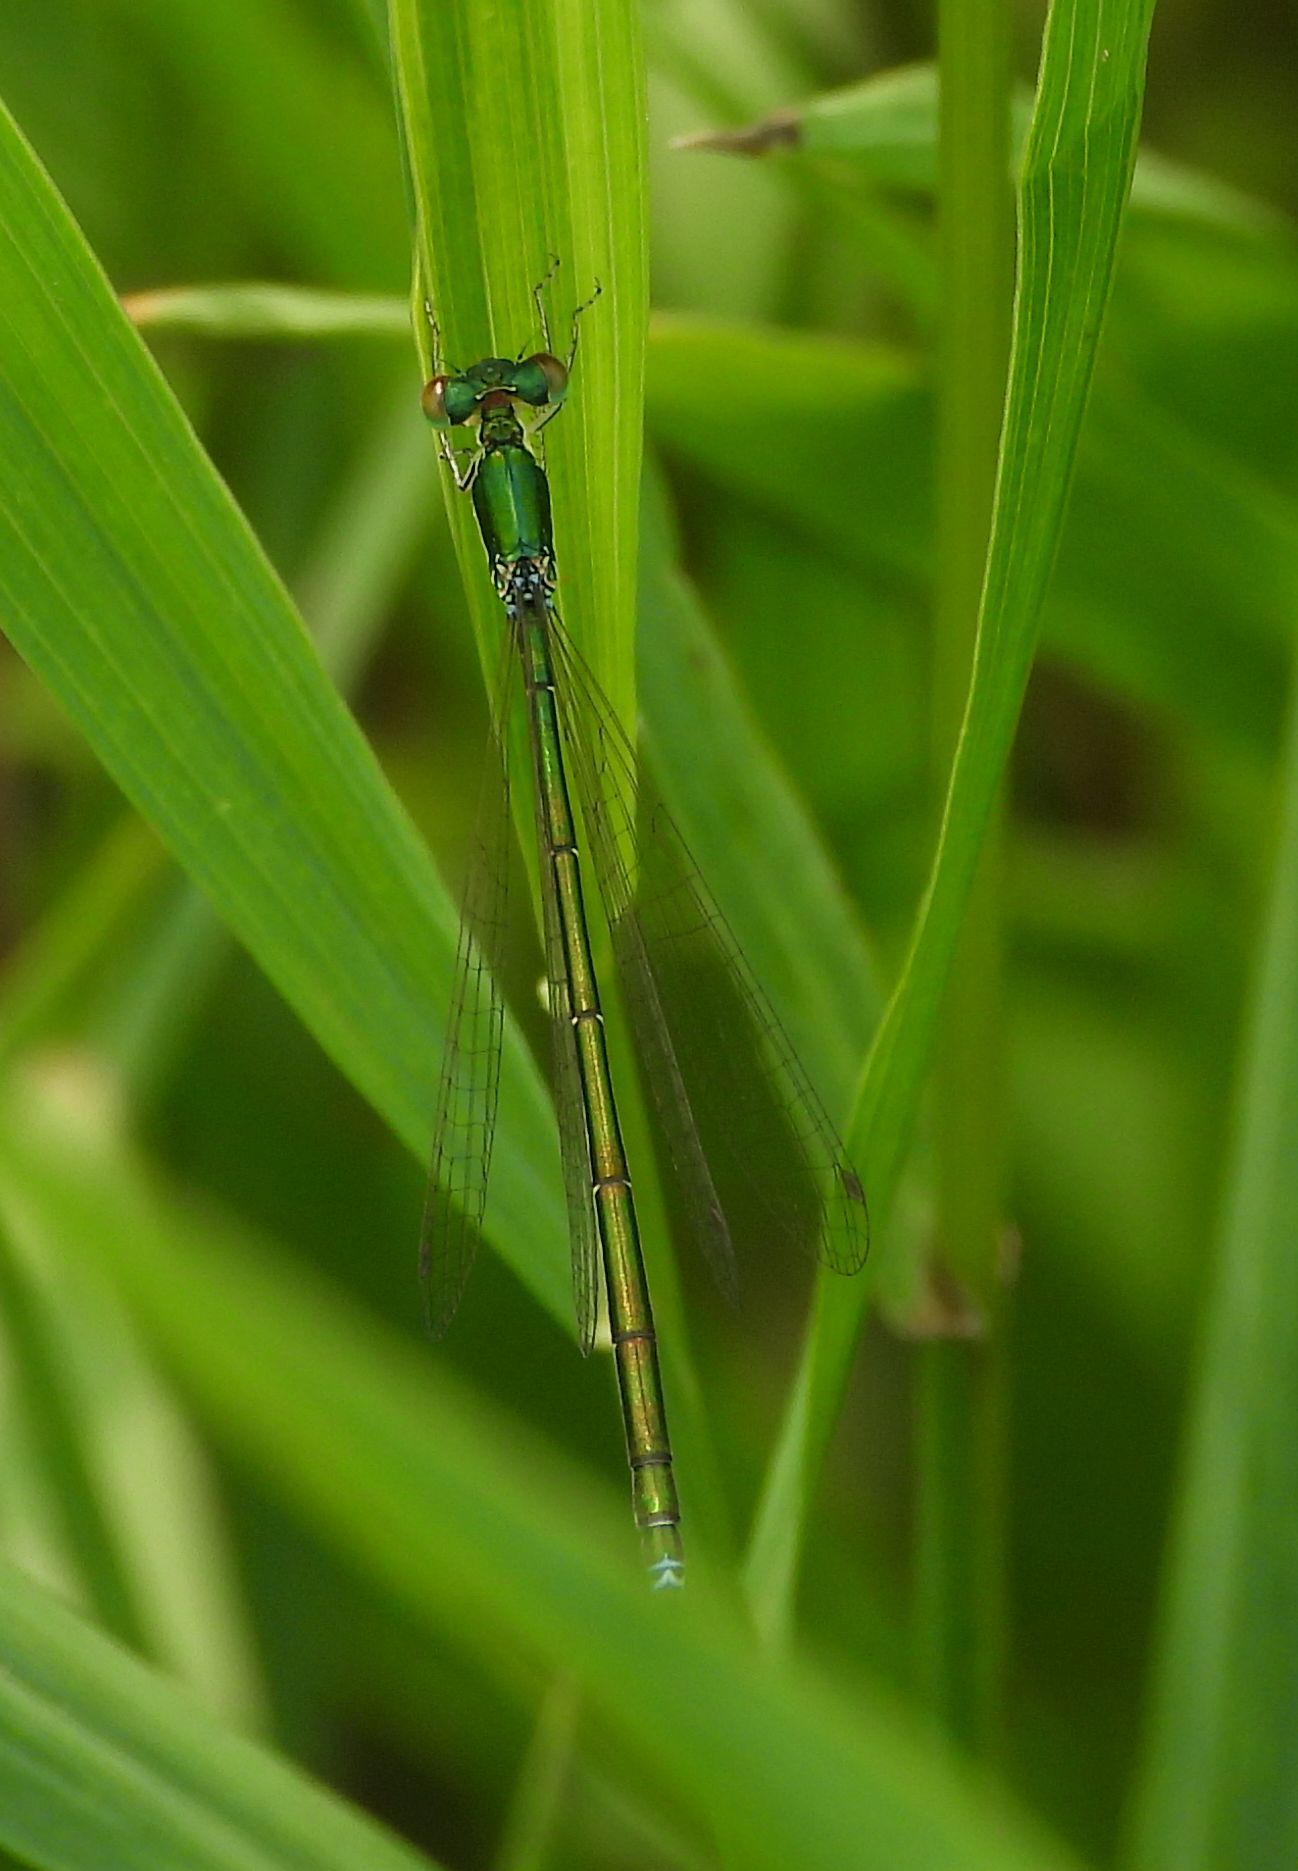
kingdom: Animalia
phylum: Arthropoda
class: Insecta
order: Odonata
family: Coenagrionidae
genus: Nehalennia
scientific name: Nehalennia irene
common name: Sedge sprite
